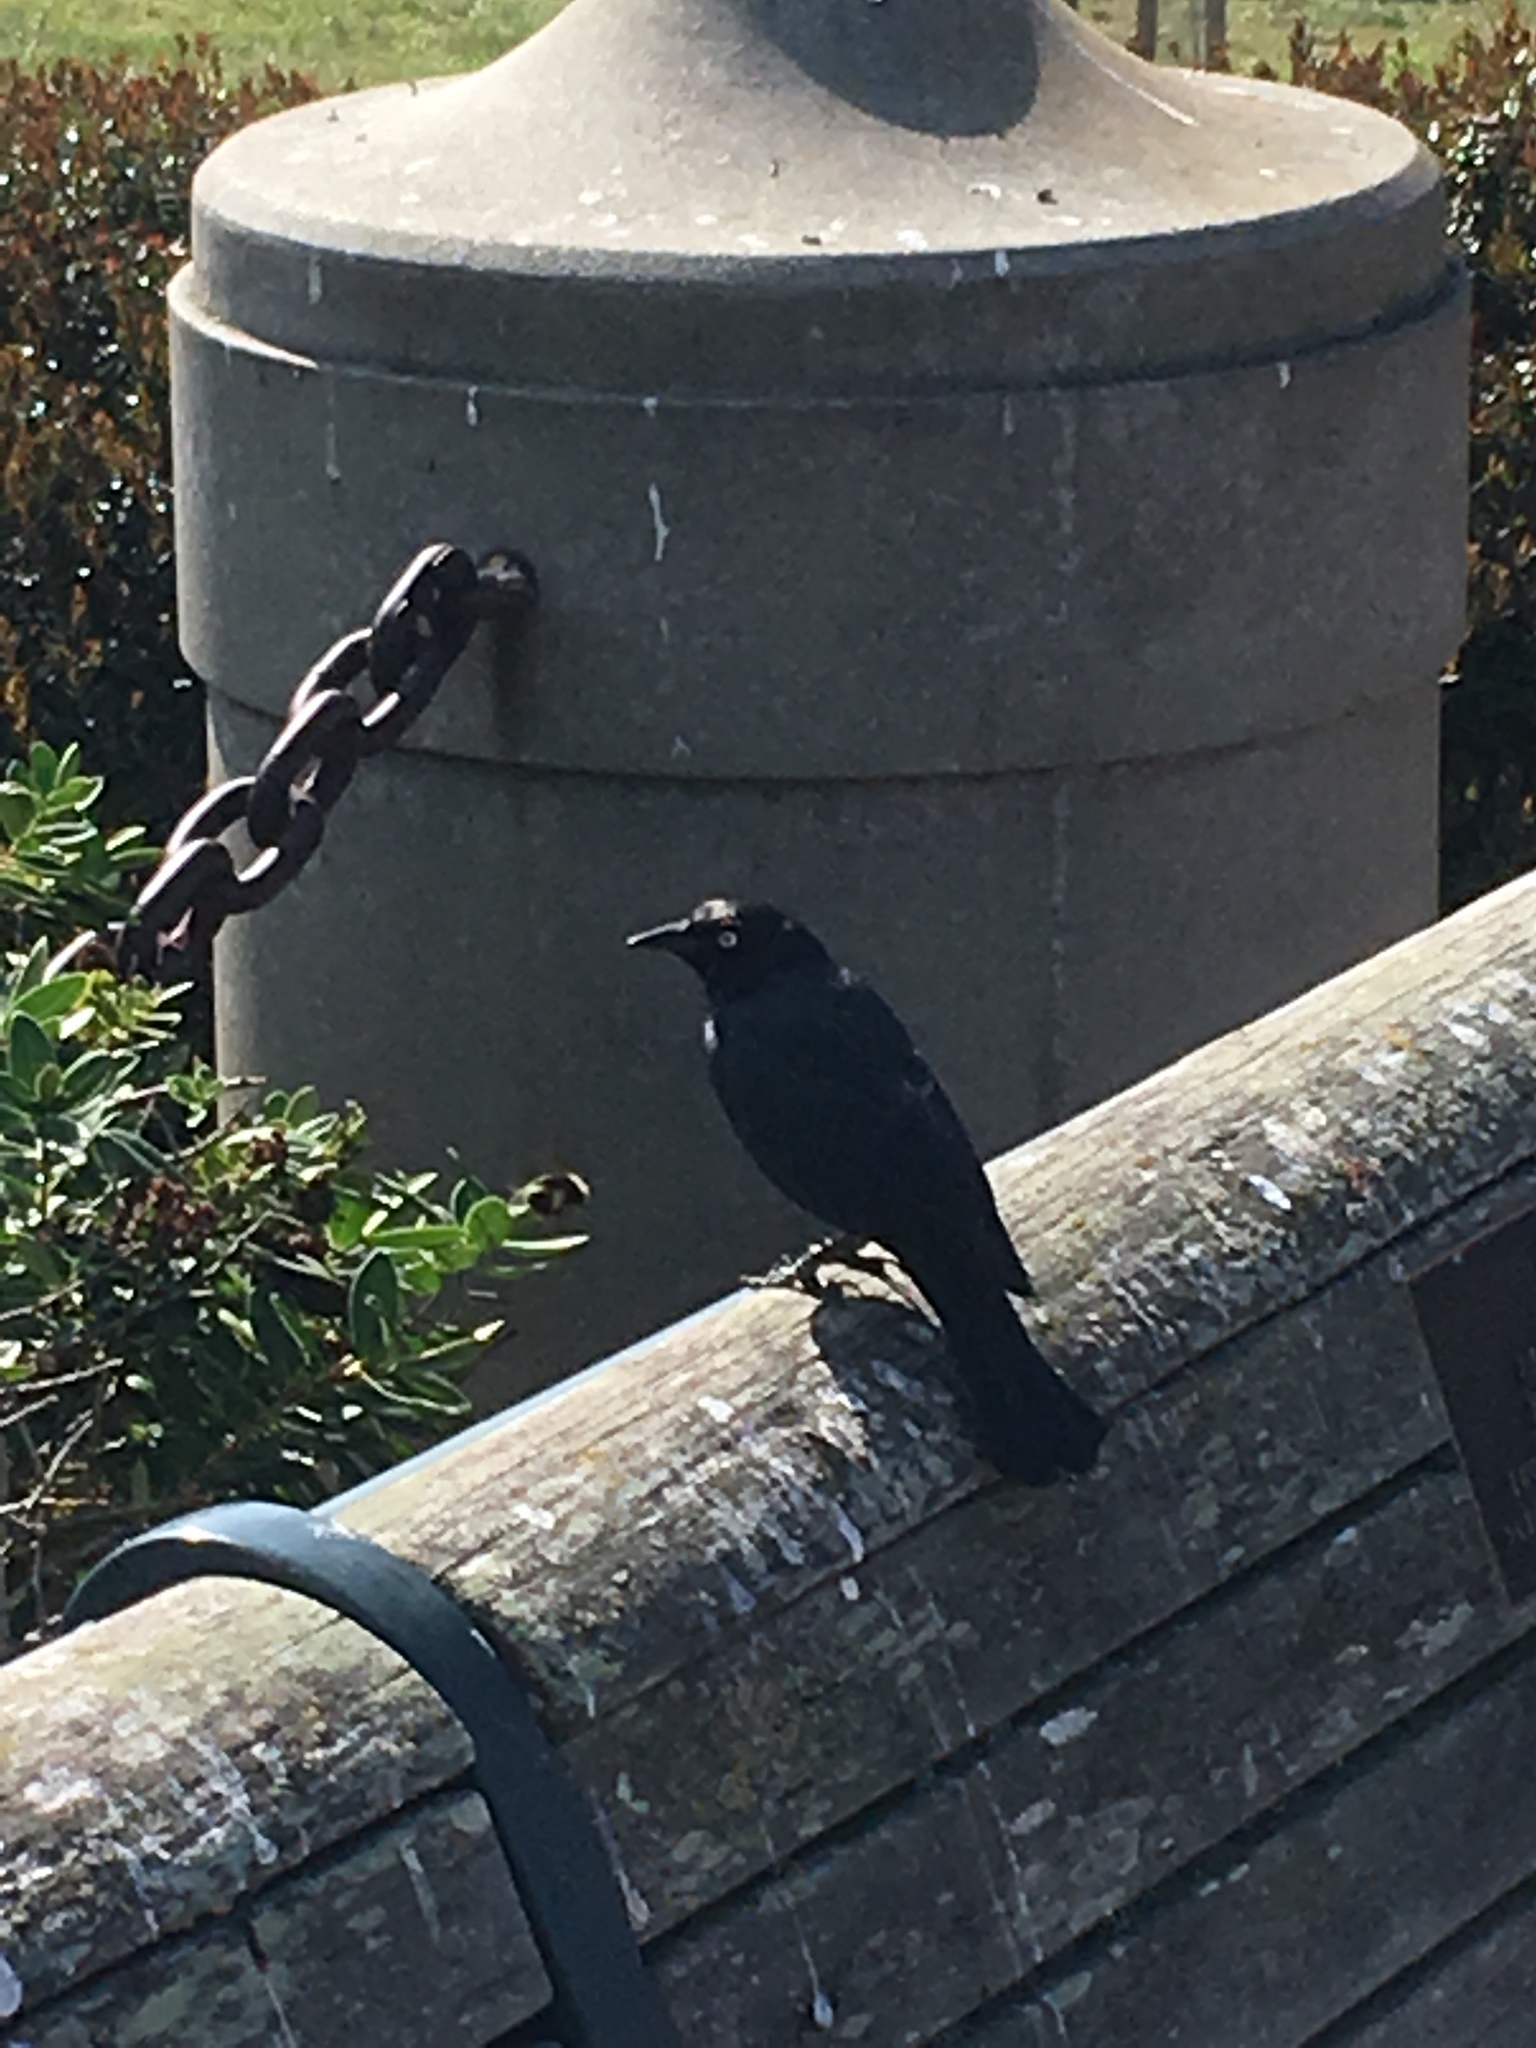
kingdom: Animalia
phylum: Chordata
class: Aves
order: Passeriformes
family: Icteridae
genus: Euphagus
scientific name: Euphagus cyanocephalus
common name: Brewer's blackbird
